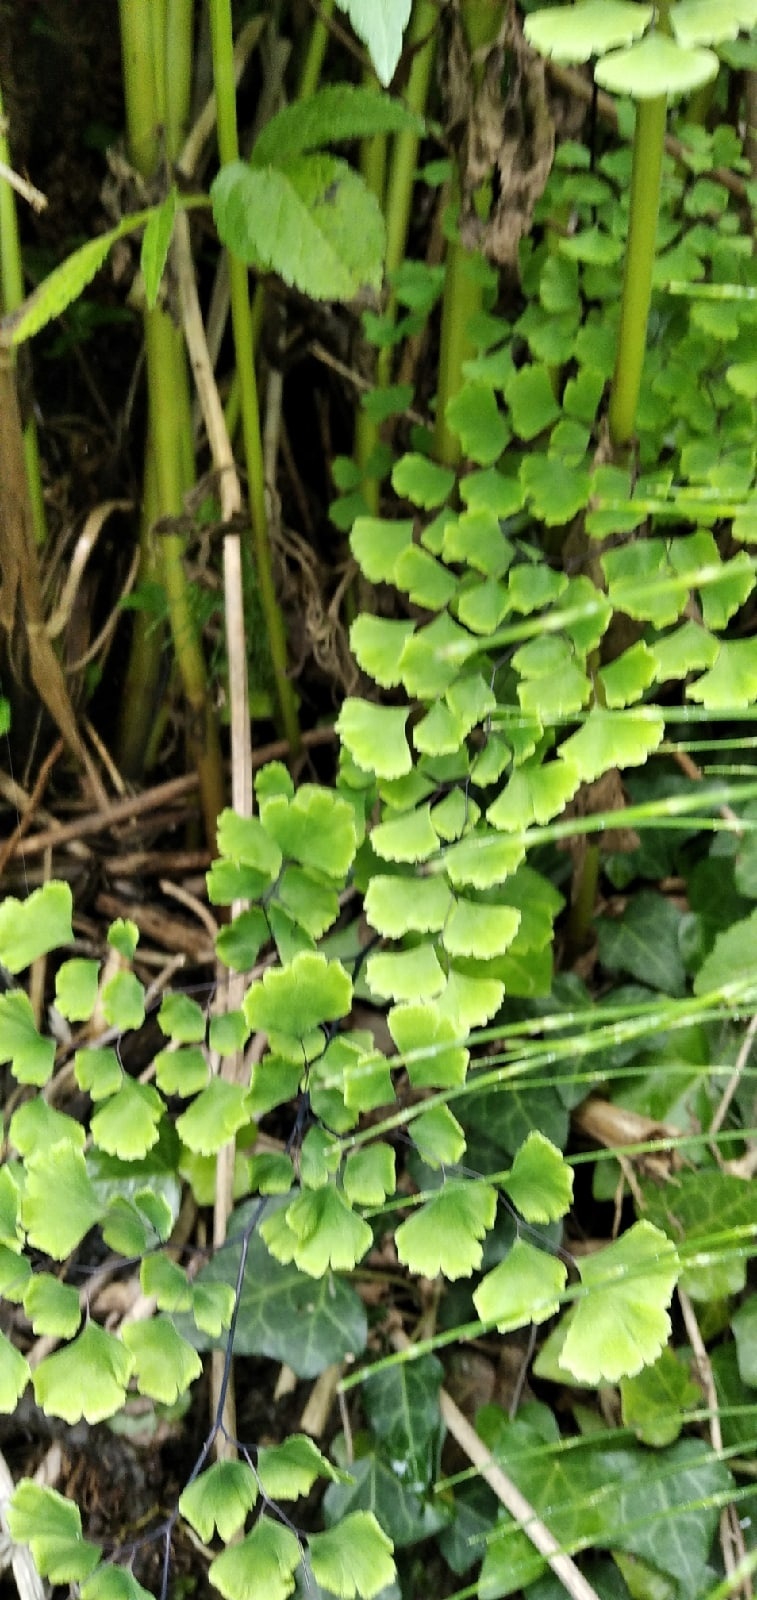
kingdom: Plantae
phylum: Tracheophyta
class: Polypodiopsida
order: Polypodiales
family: Pteridaceae
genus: Adiantum
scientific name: Adiantum capillus-veneris
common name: Maidenhair fern
